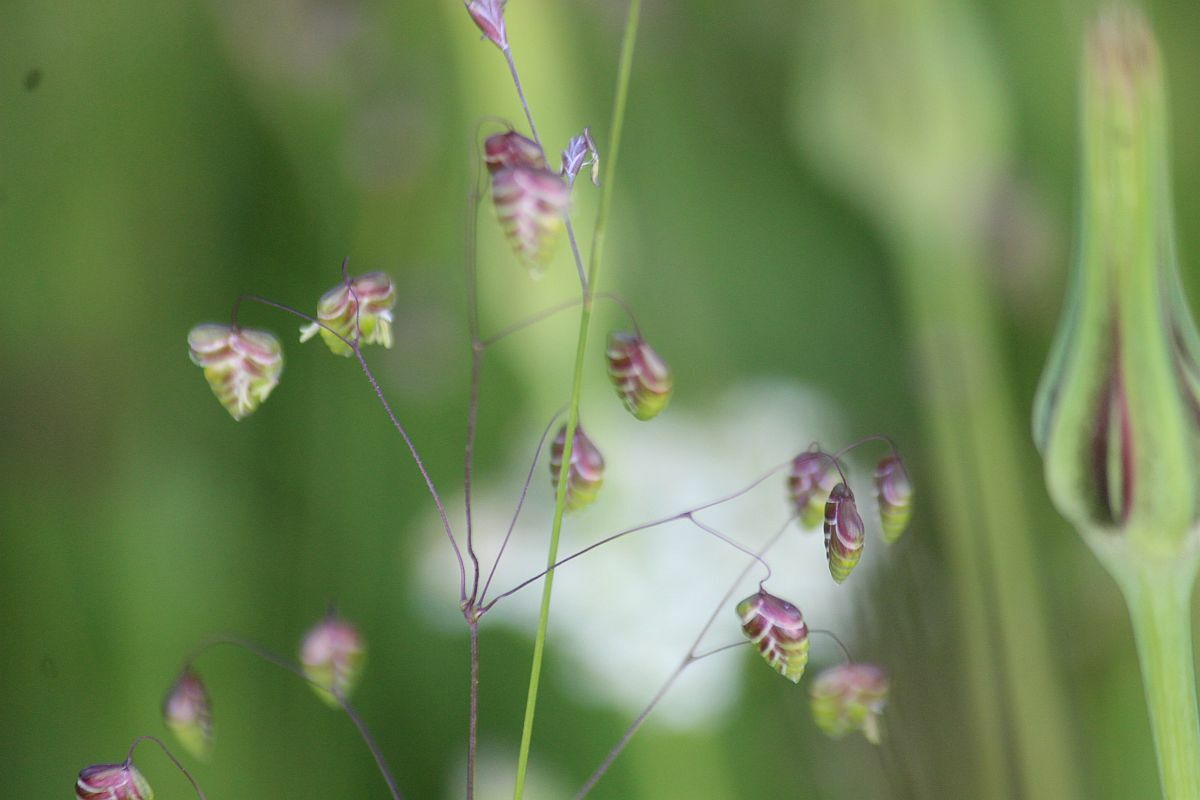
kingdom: Plantae
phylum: Tracheophyta
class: Liliopsida
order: Poales
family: Poaceae
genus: Briza
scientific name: Briza media
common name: Quaking grass
